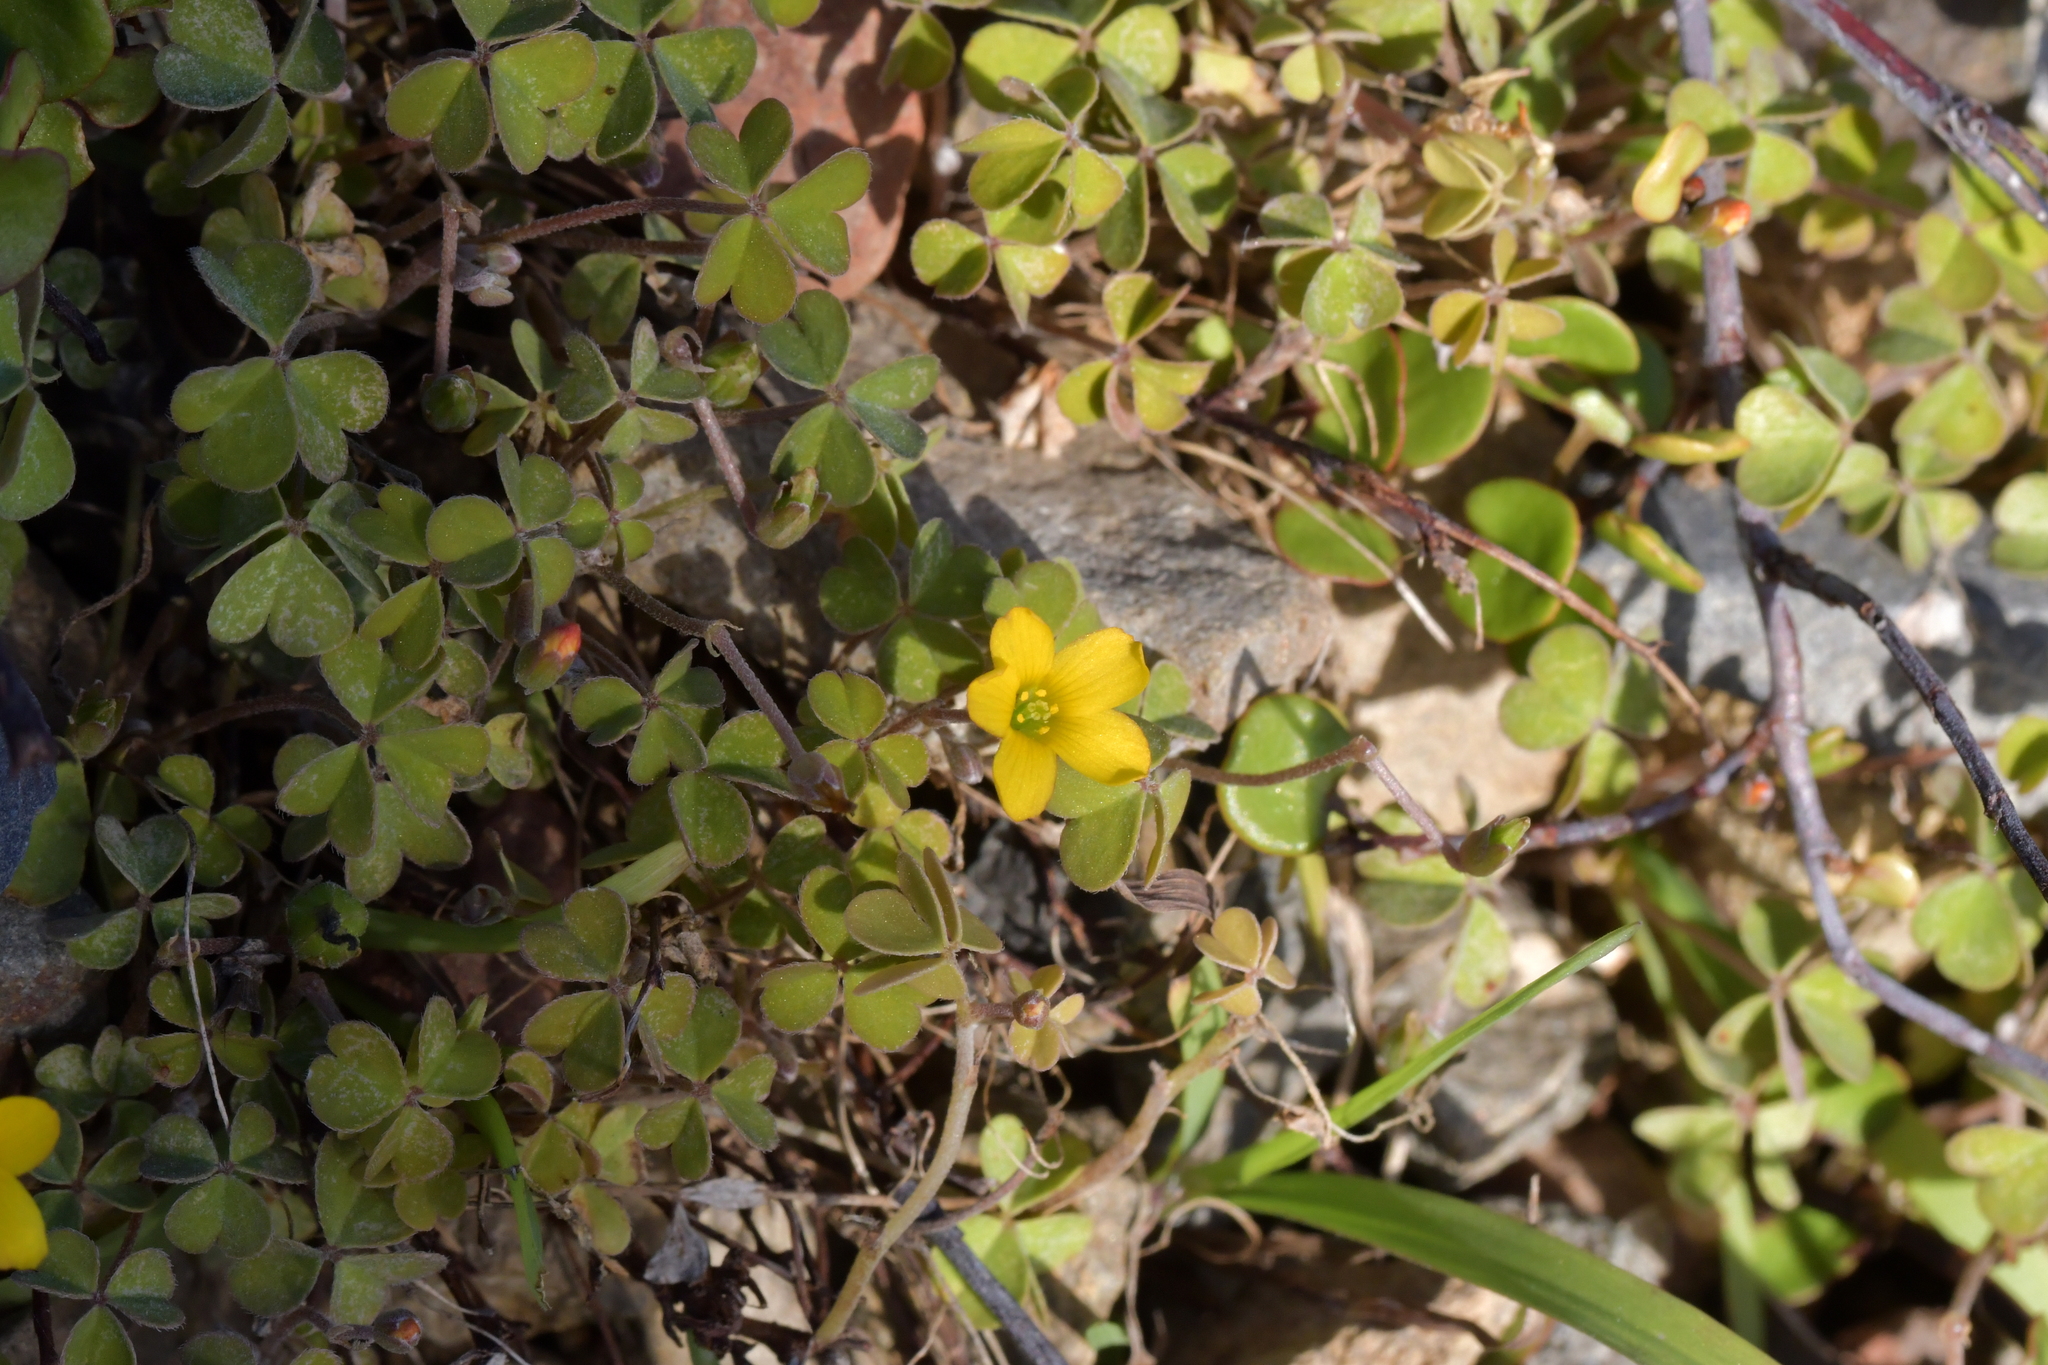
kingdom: Plantae
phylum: Tracheophyta
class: Magnoliopsida
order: Oxalidales
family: Oxalidaceae
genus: Oxalis
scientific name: Oxalis rubens
